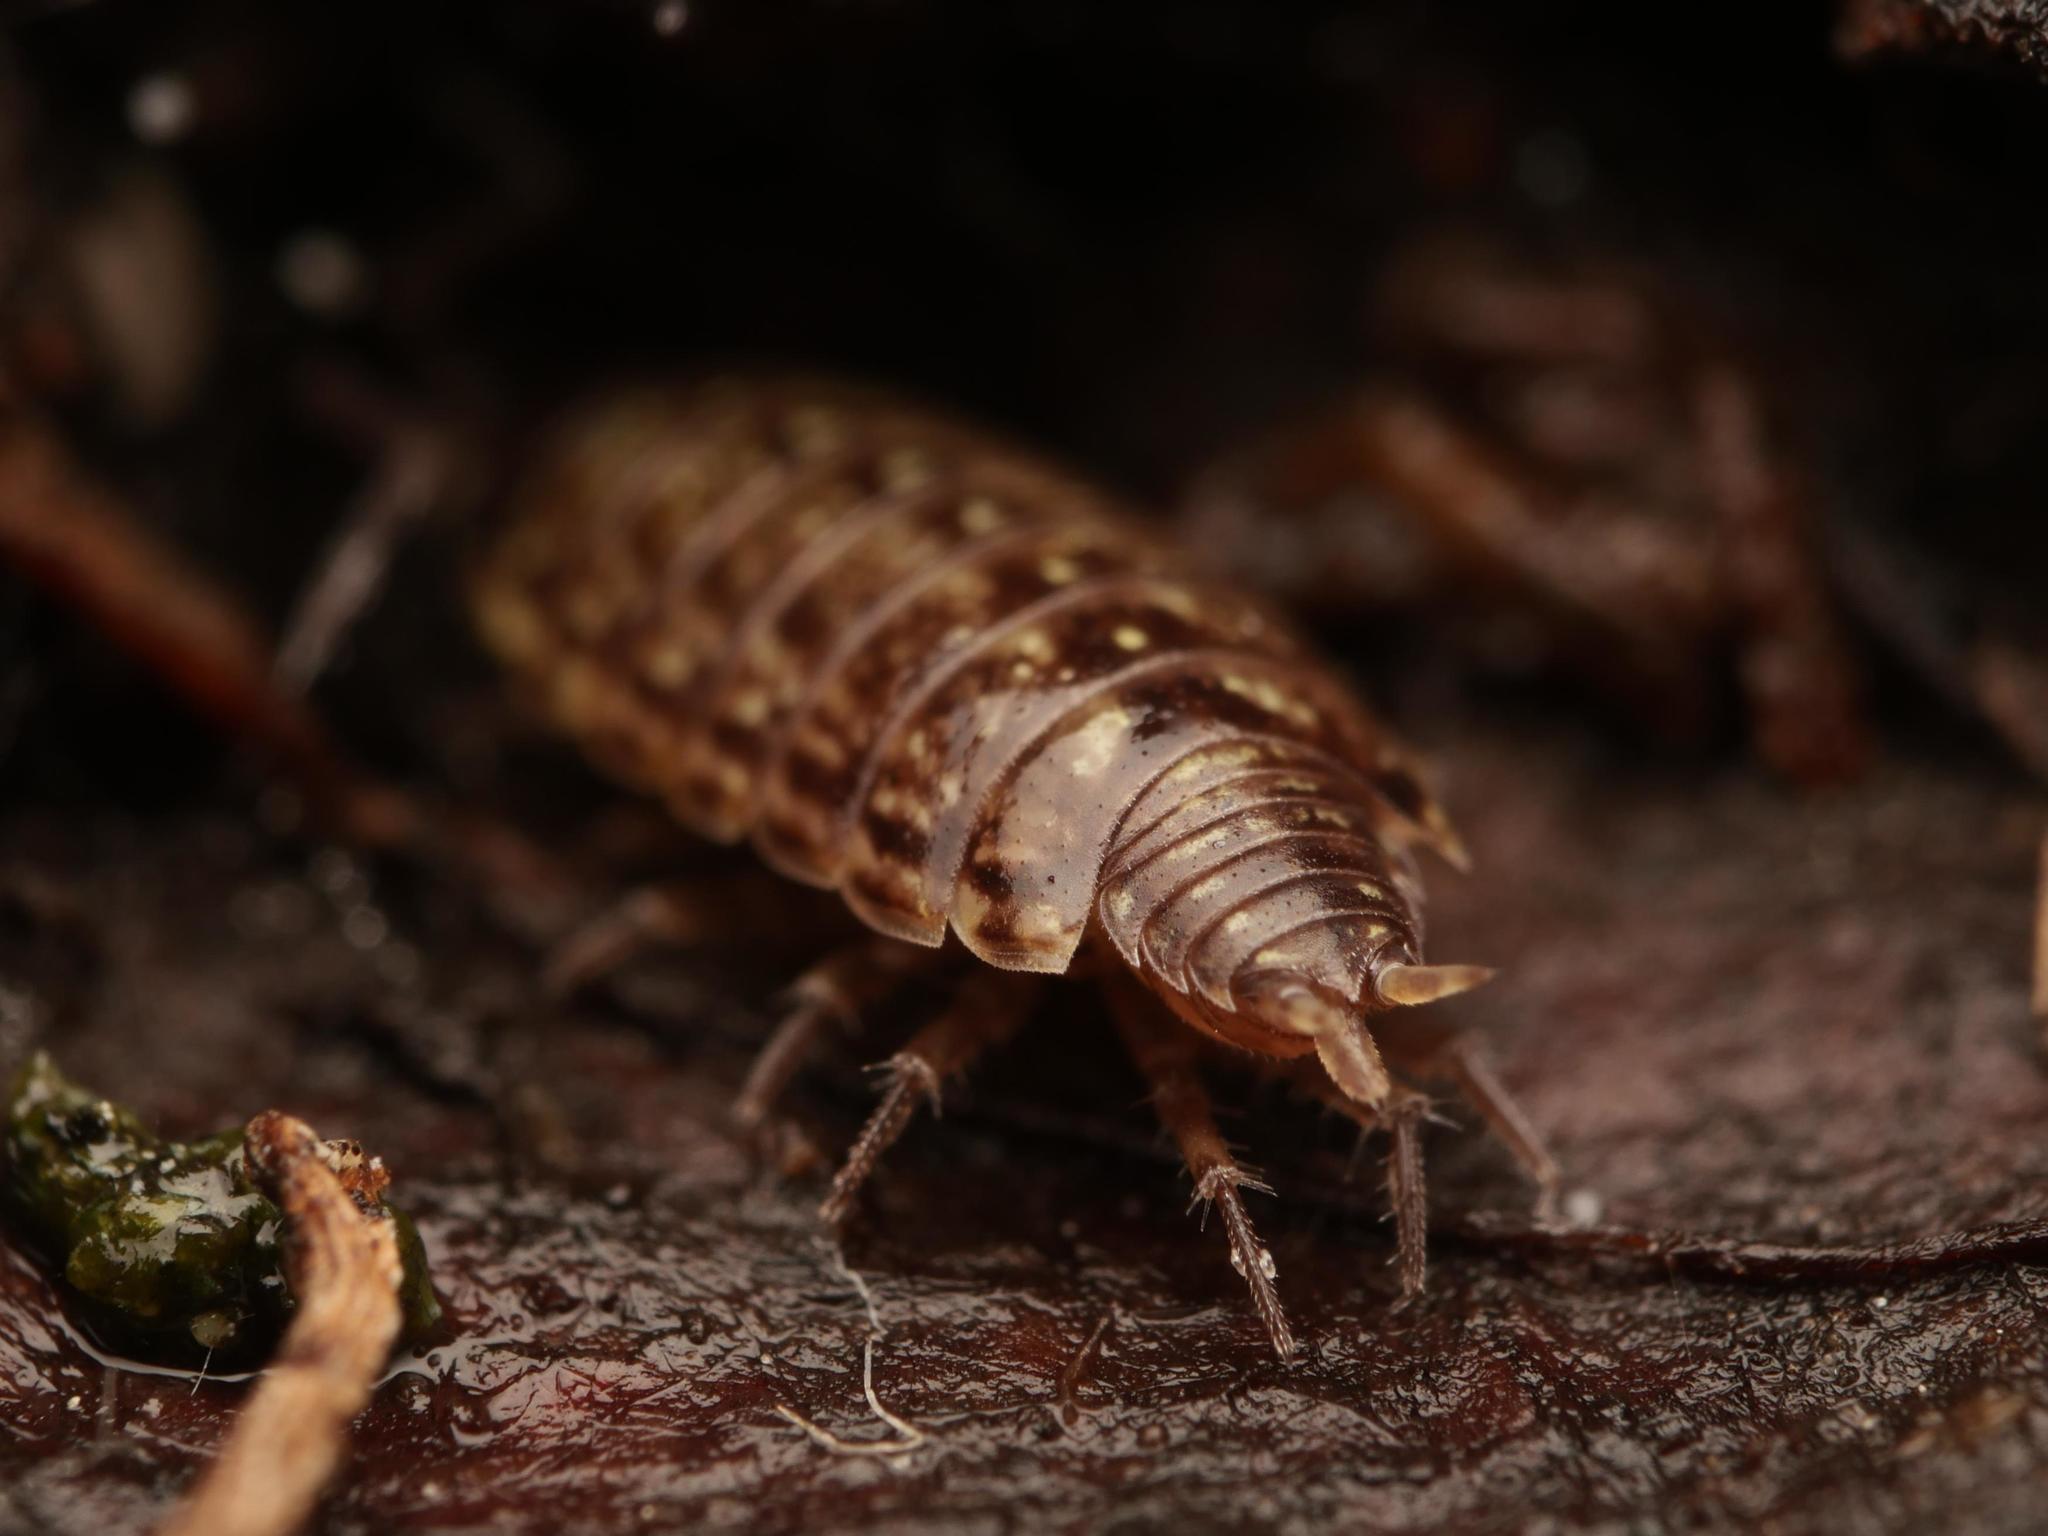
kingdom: Animalia
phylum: Arthropoda
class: Malacostraca
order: Isopoda
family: Philosciidae
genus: Philoscia
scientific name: Philoscia muscorum
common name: Common striped woodlouse
